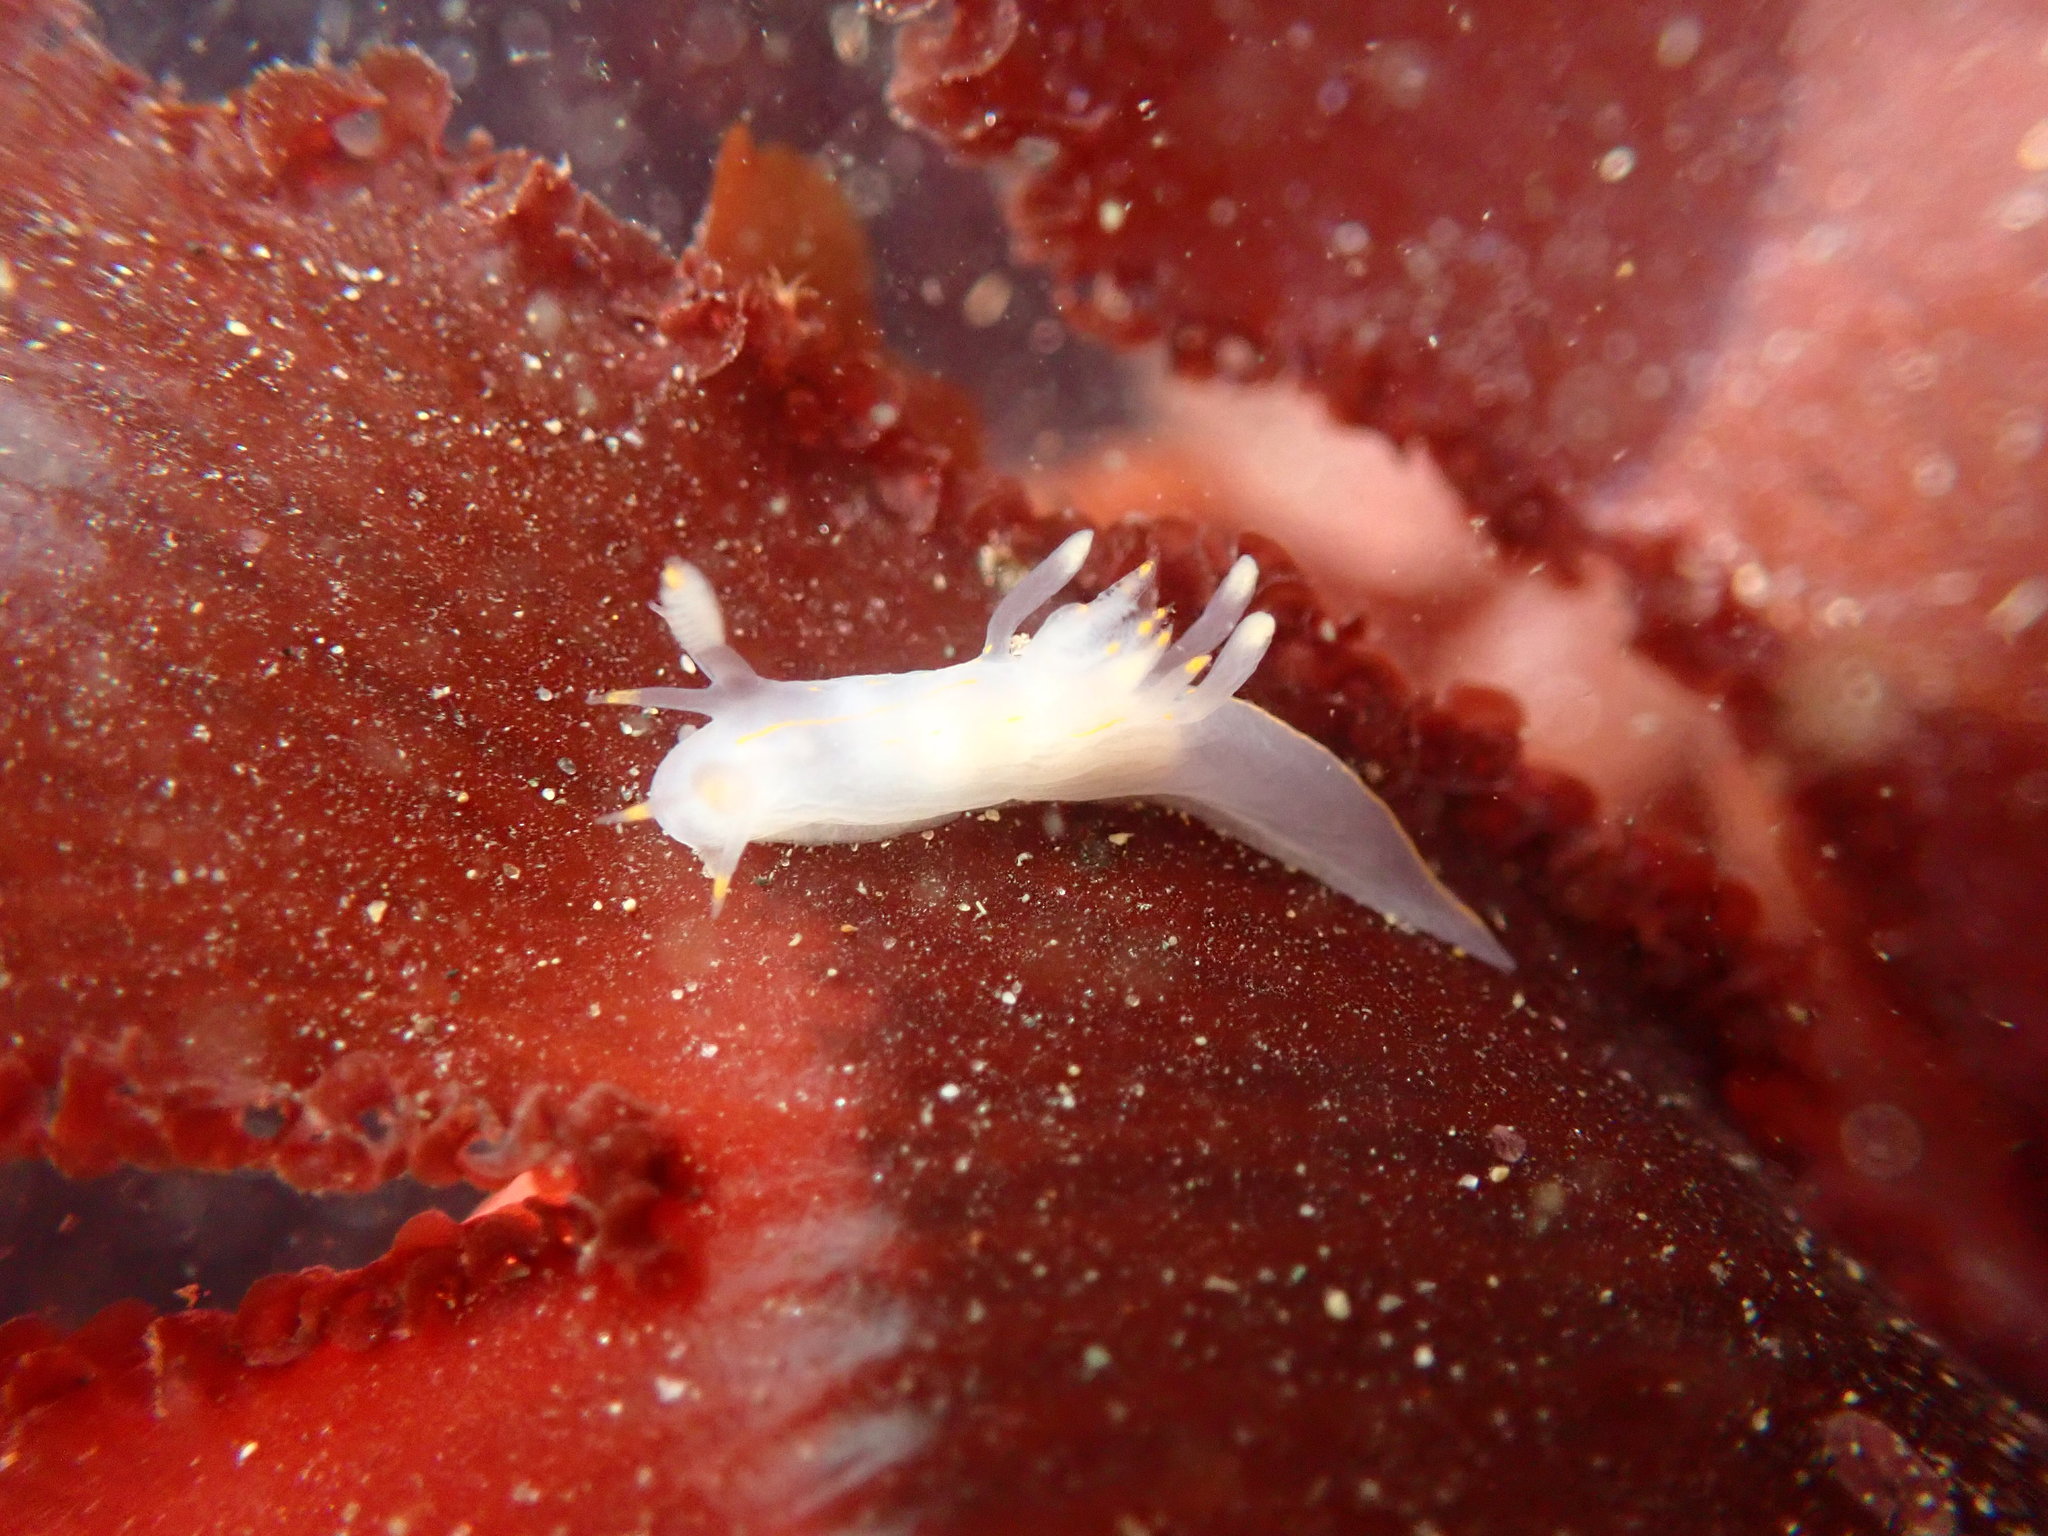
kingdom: Animalia
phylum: Mollusca
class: Gastropoda
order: Nudibranchia
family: Goniodorididae
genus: Ancula
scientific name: Ancula pacifica
